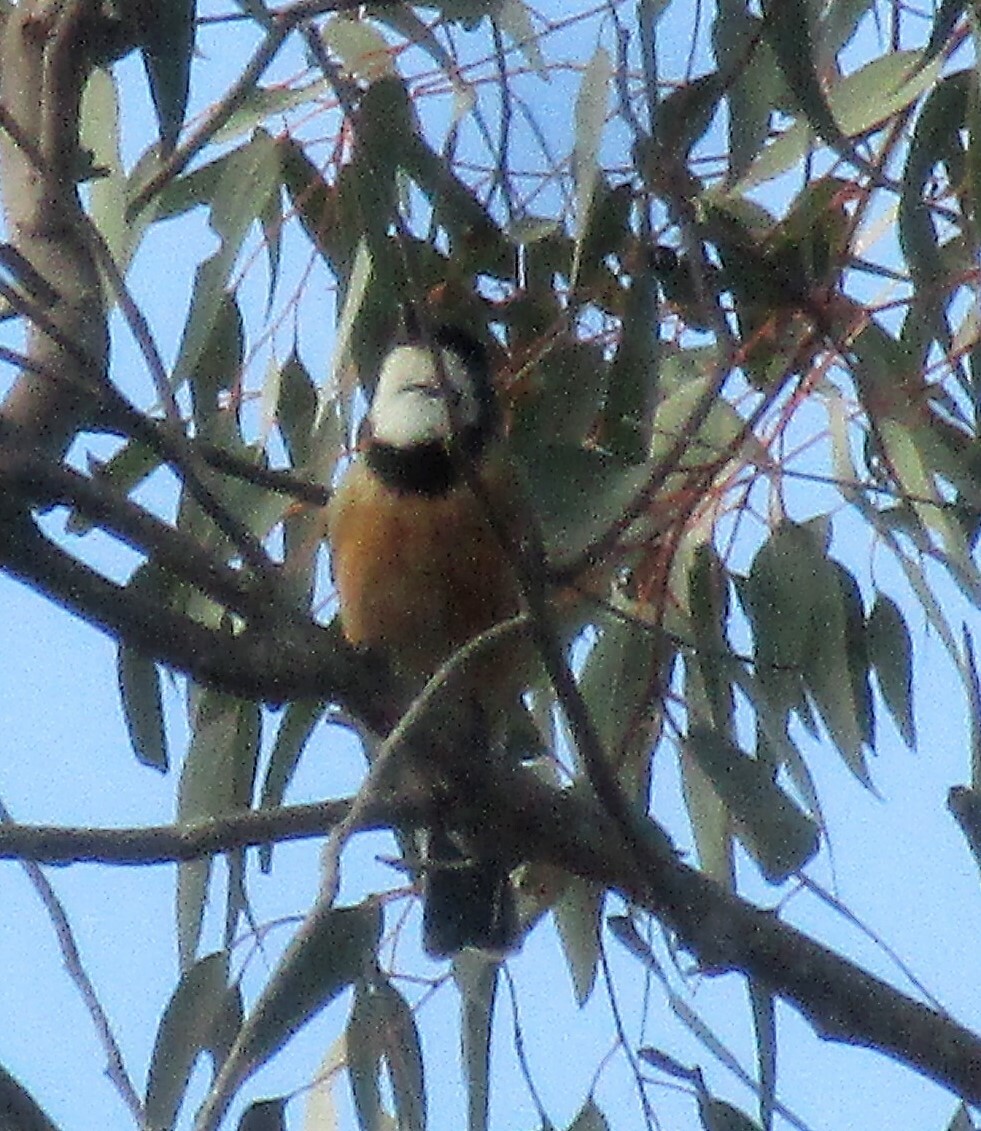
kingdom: Animalia
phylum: Chordata
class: Aves
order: Passeriformes
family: Pachycephalidae
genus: Pachycephala
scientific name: Pachycephala rufiventris
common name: Rufous whistler
